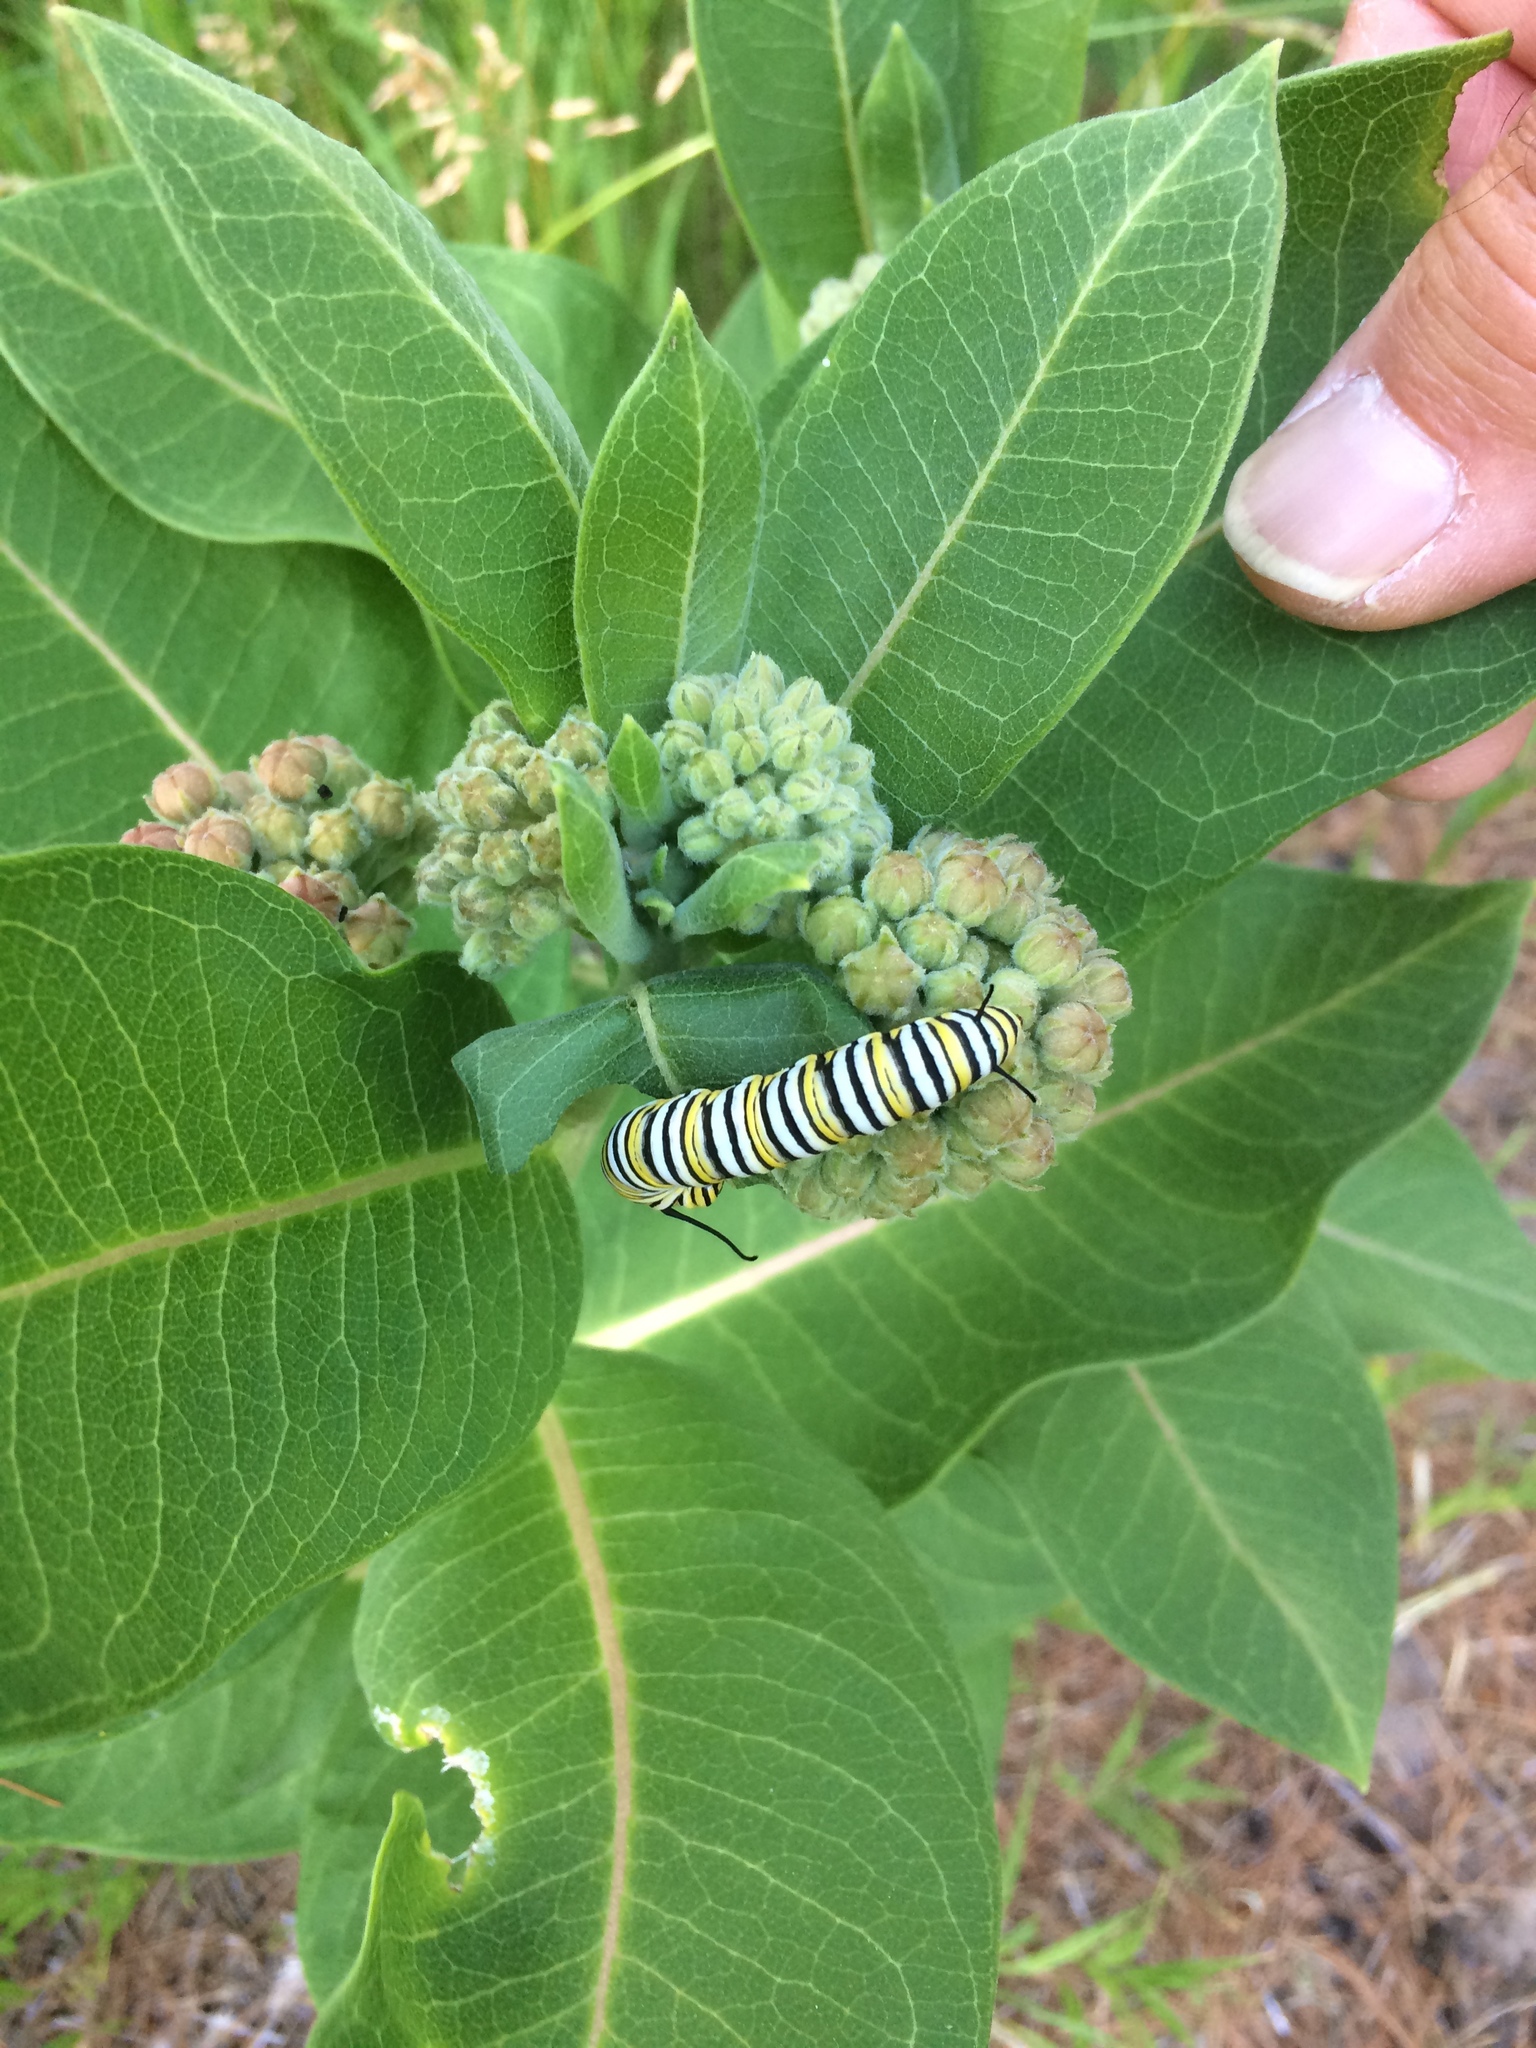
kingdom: Animalia
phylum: Arthropoda
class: Insecta
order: Lepidoptera
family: Nymphalidae
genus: Danaus
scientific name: Danaus plexippus
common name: Monarch
